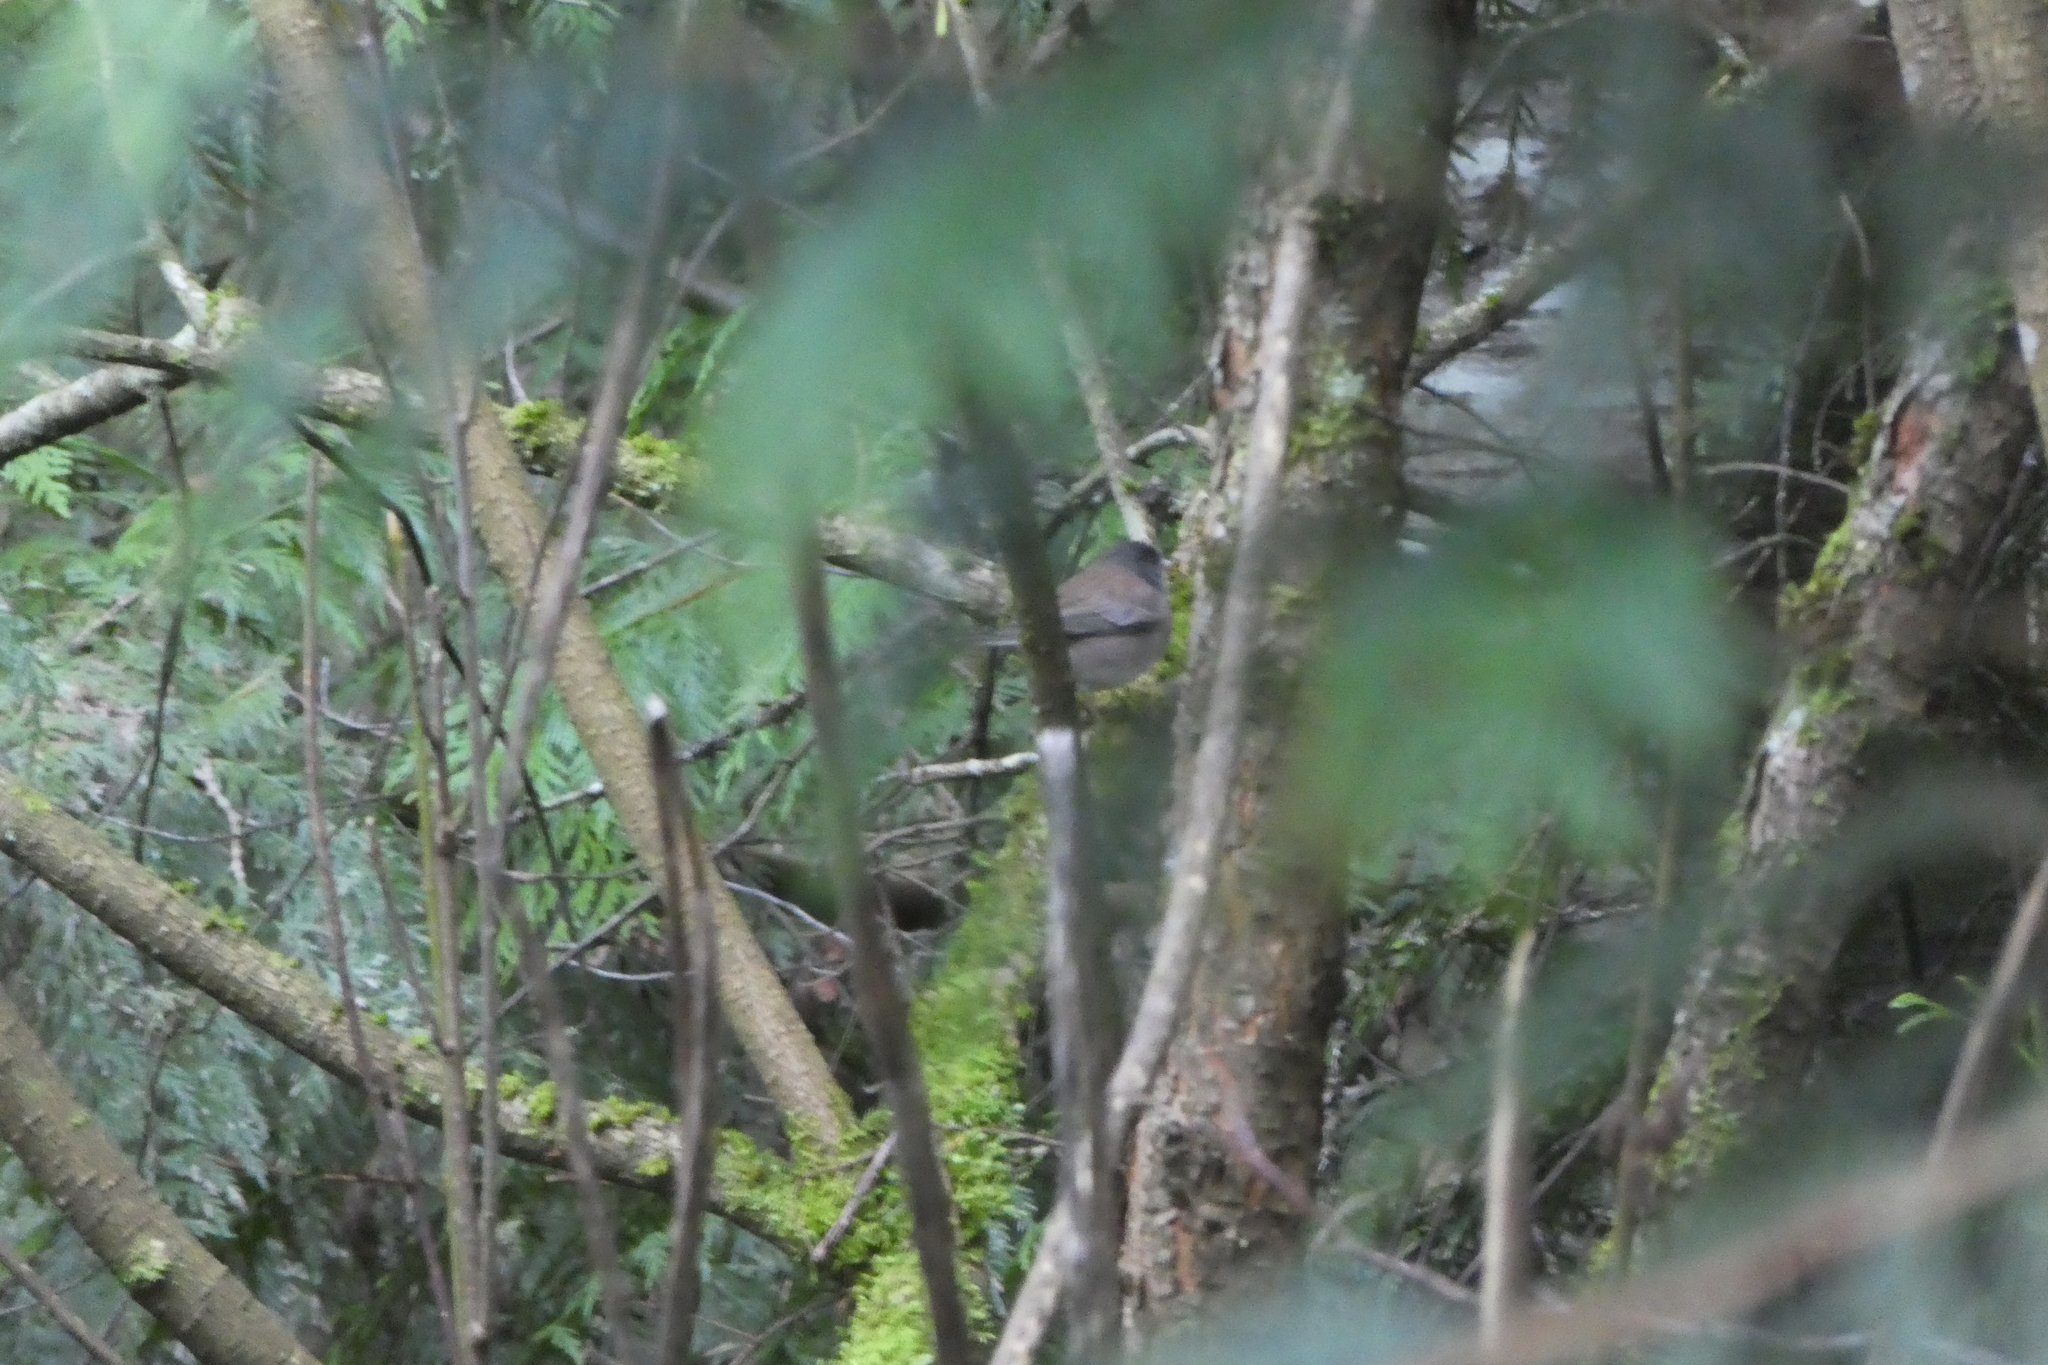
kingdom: Animalia
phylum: Chordata
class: Aves
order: Passeriformes
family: Passerellidae
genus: Junco
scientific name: Junco hyemalis
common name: Dark-eyed junco
